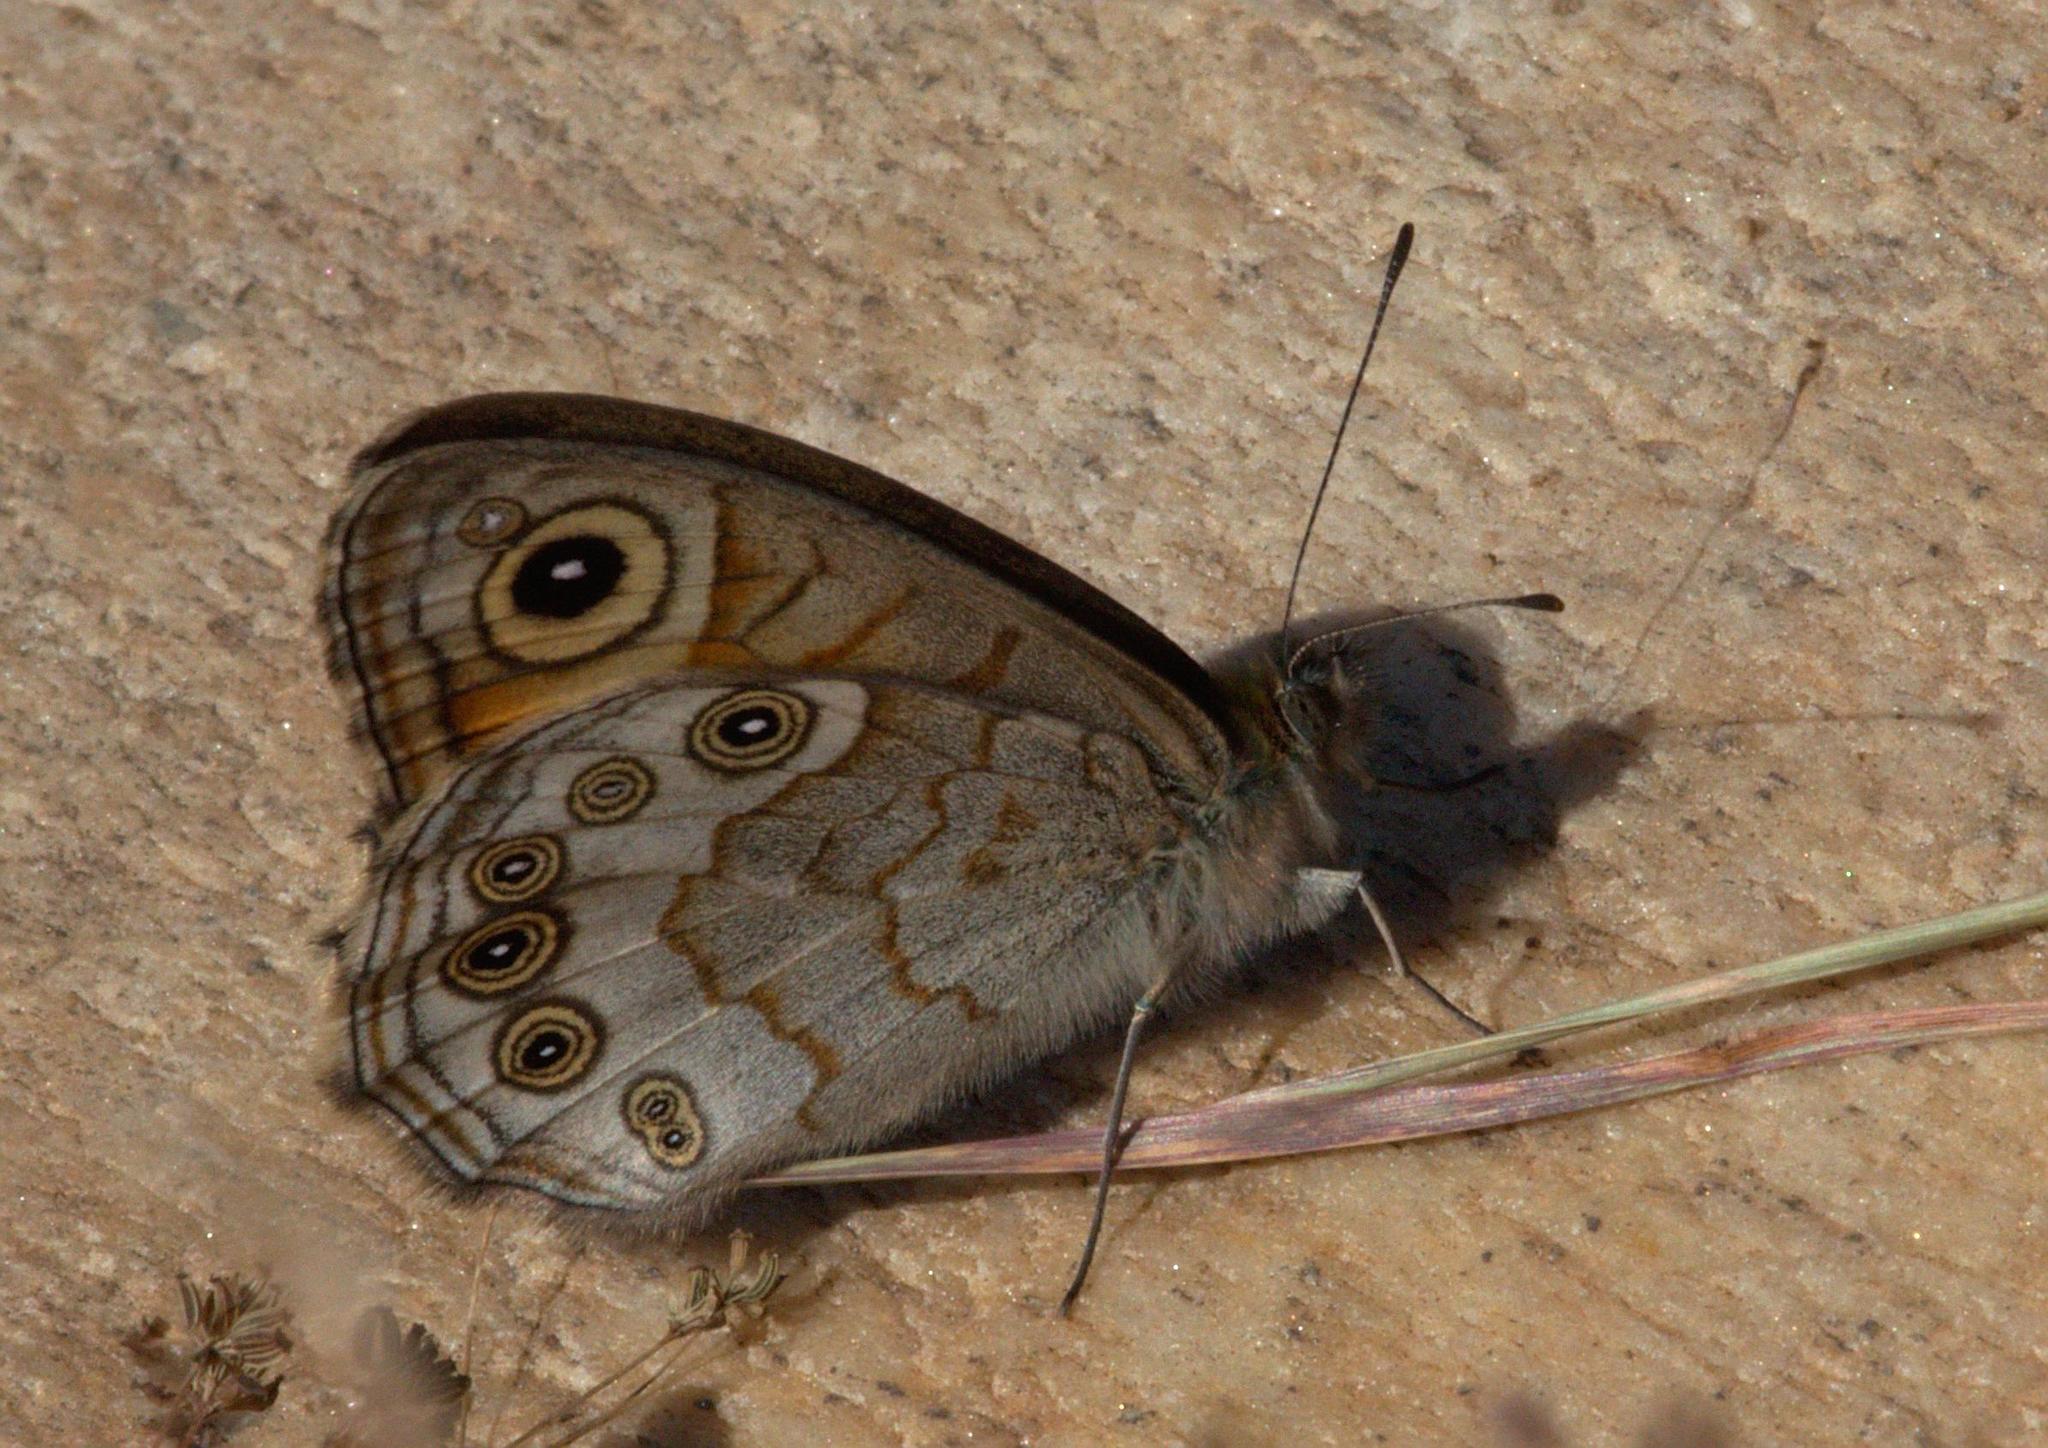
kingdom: Animalia
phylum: Arthropoda
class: Insecta
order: Lepidoptera
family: Nymphalidae
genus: Pararge
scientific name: Pararge Lasiommata schakra
